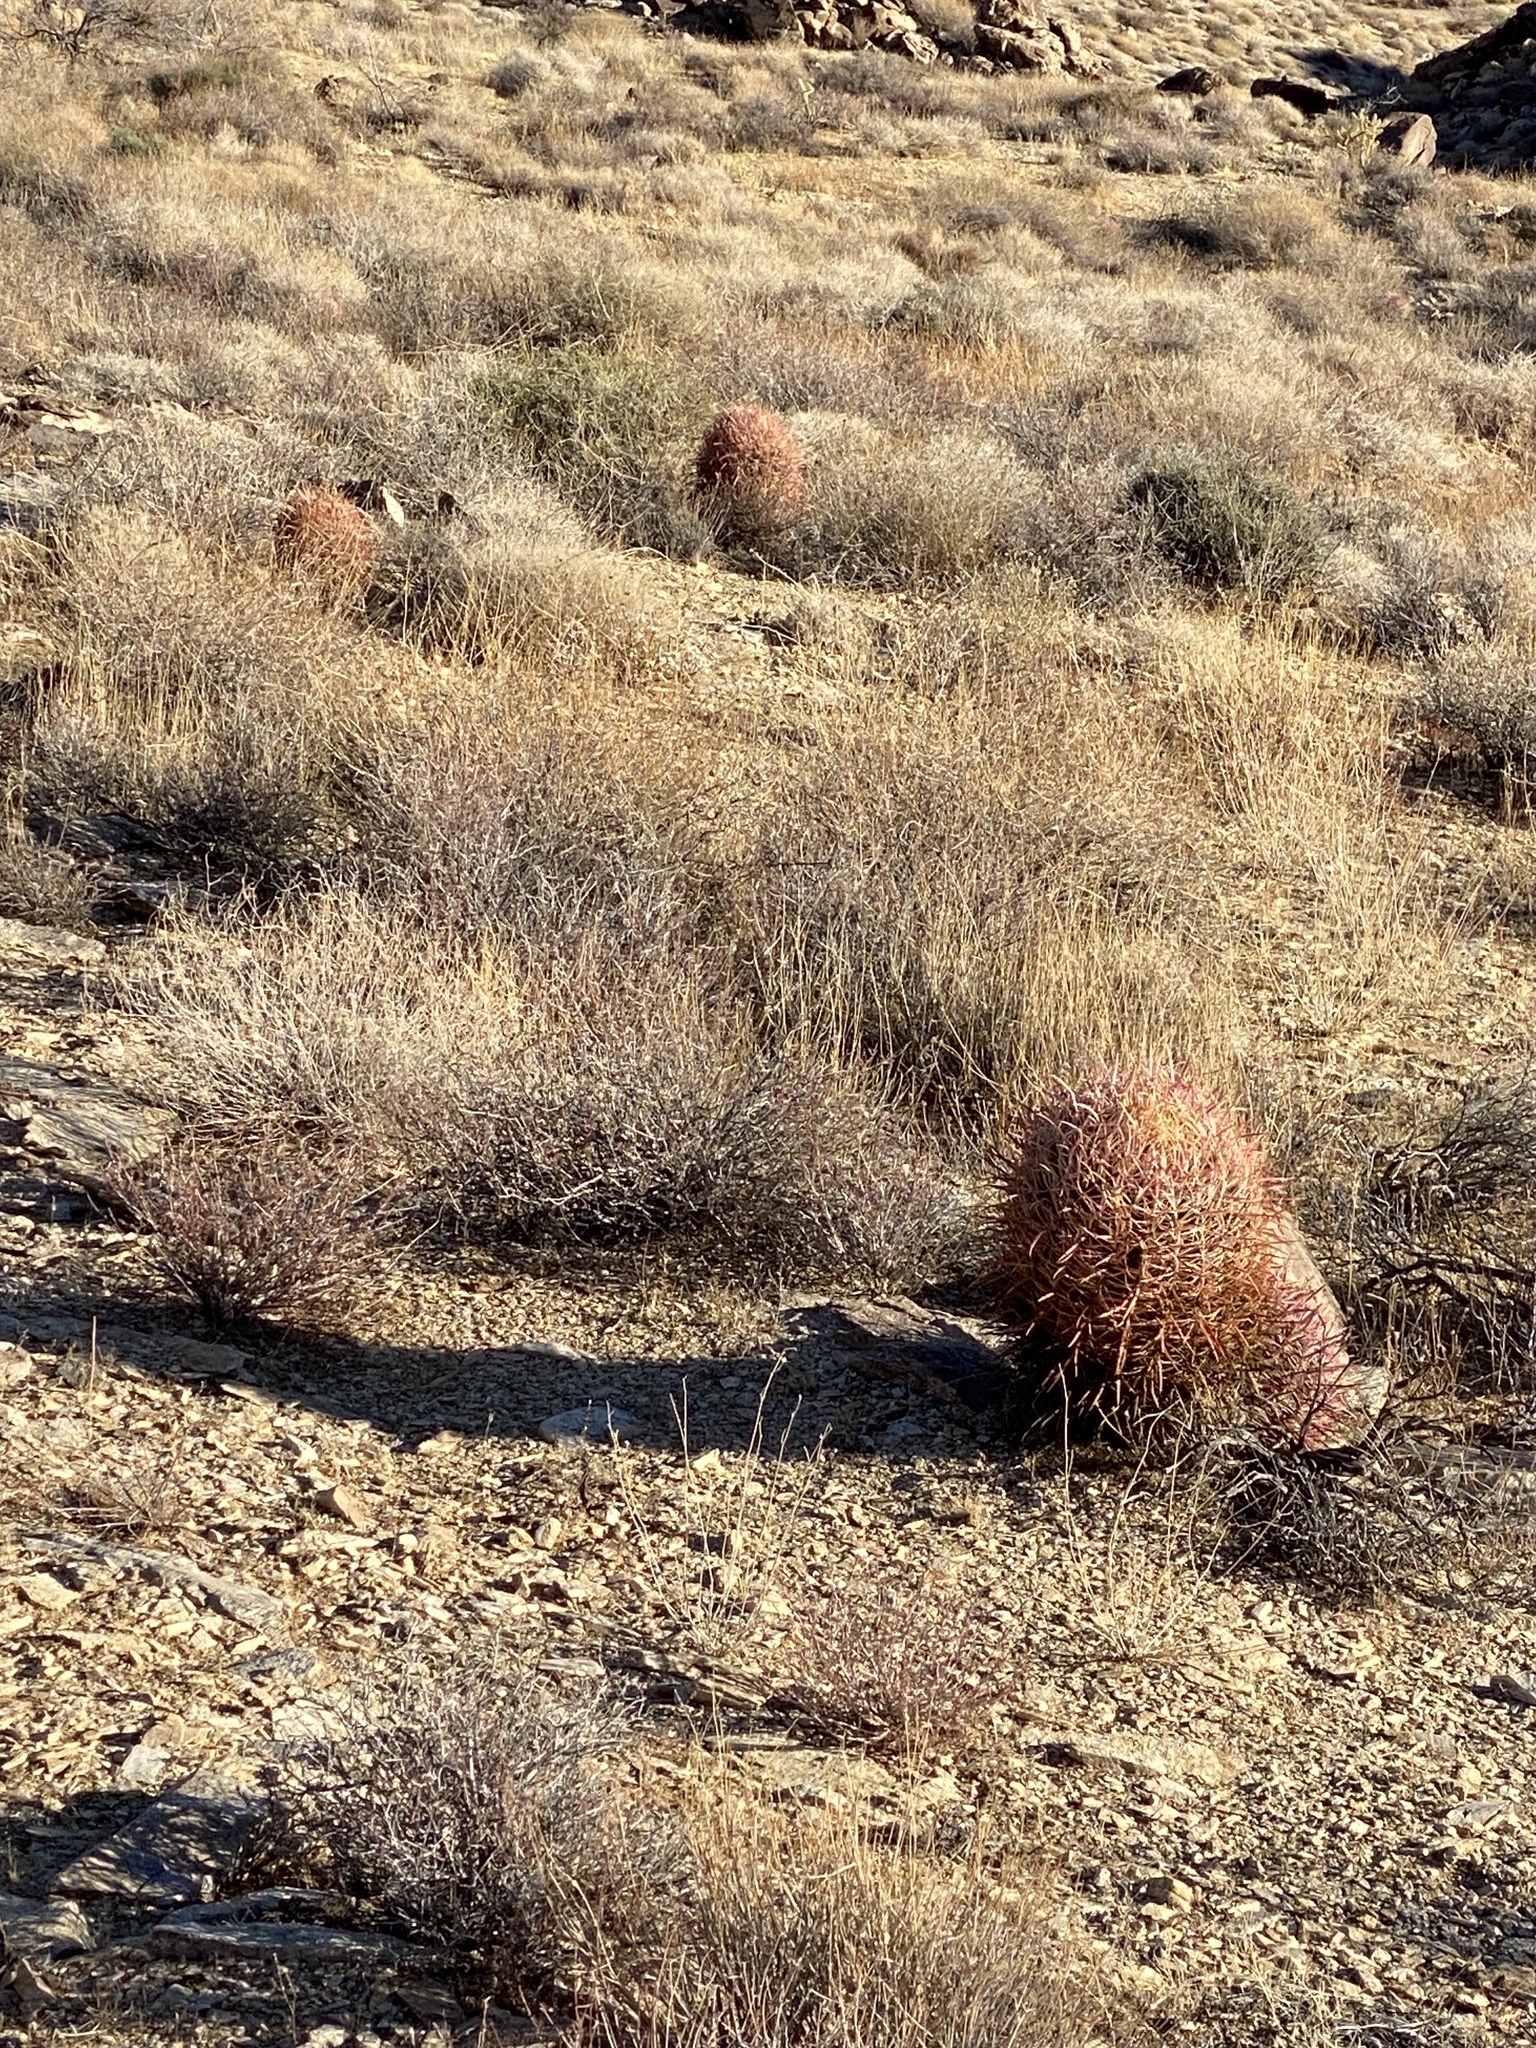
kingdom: Plantae
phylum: Tracheophyta
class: Magnoliopsida
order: Caryophyllales
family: Cactaceae
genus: Ferocactus
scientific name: Ferocactus cylindraceus
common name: California barrel cactus
